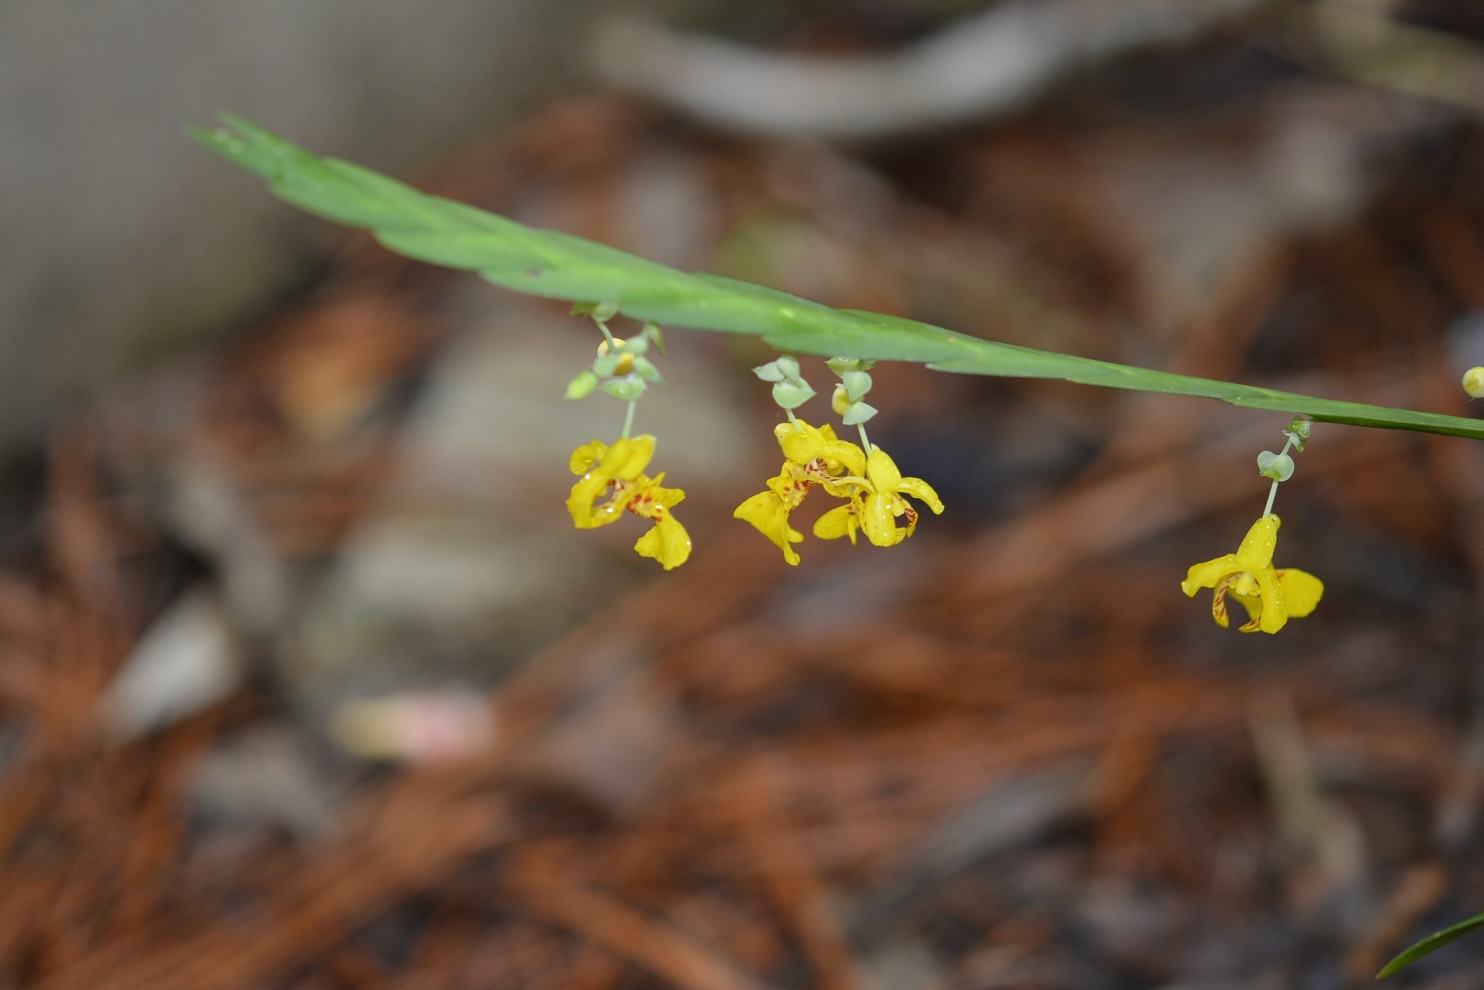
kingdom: Plantae
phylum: Tracheophyta
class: Liliopsida
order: Asparagales
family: Orchidaceae
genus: Lockhartia
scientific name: Lockhartia oerstedii
